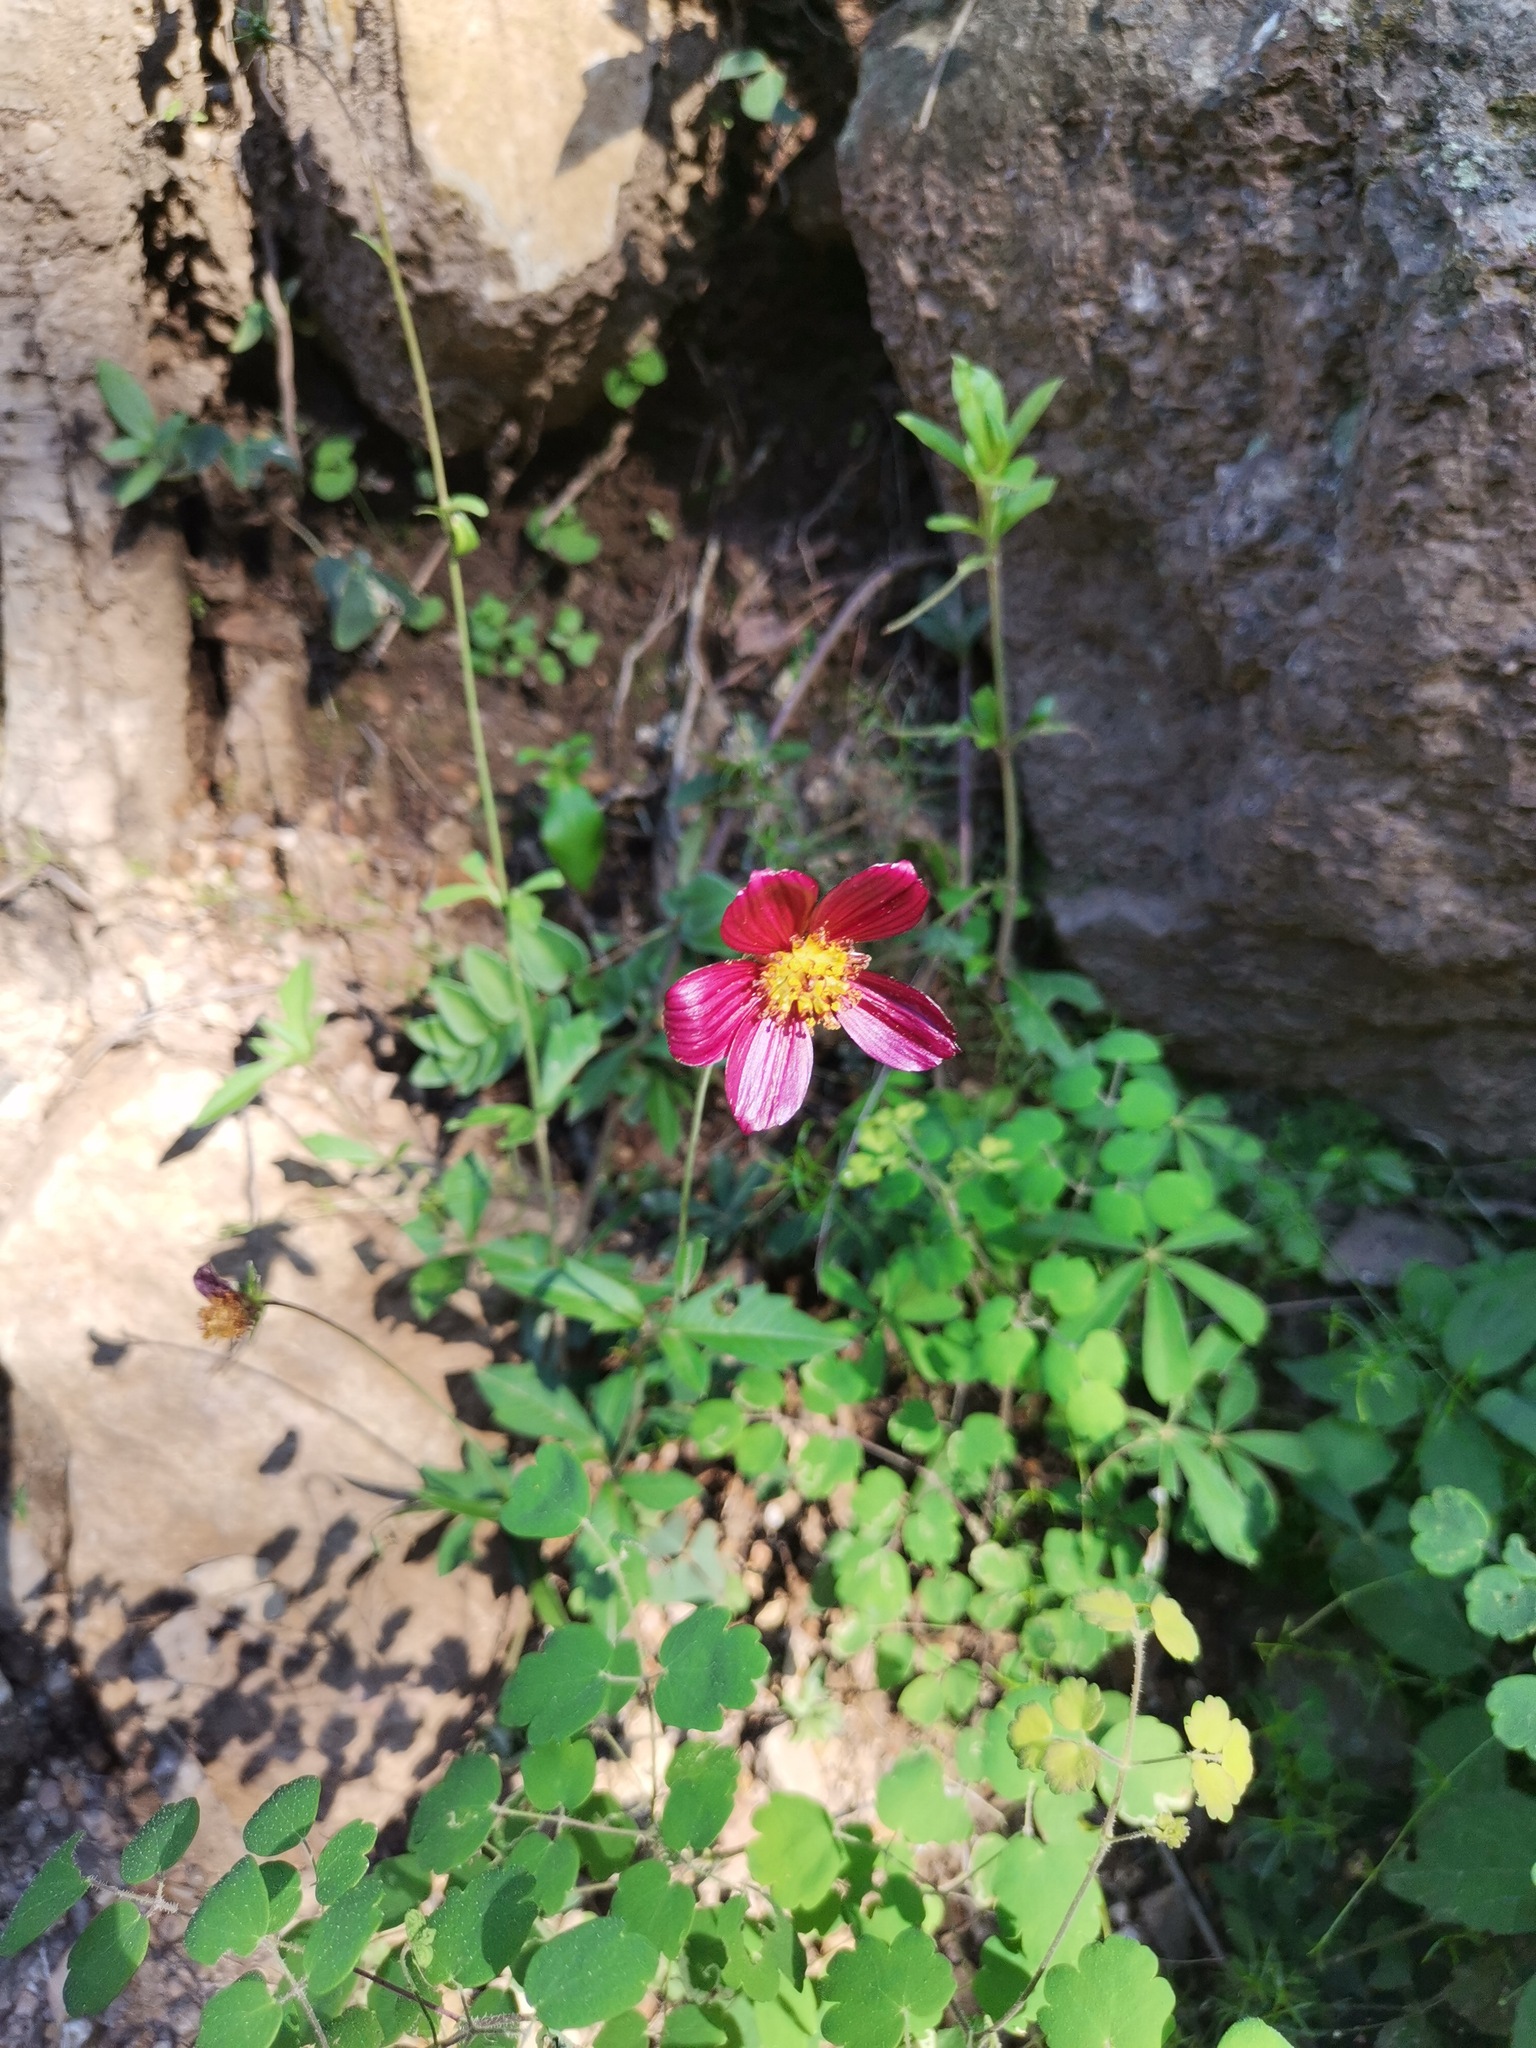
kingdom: Plantae
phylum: Tracheophyta
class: Magnoliopsida
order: Asterales
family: Asteraceae
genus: Cosmos
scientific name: Cosmos scabiosoides
